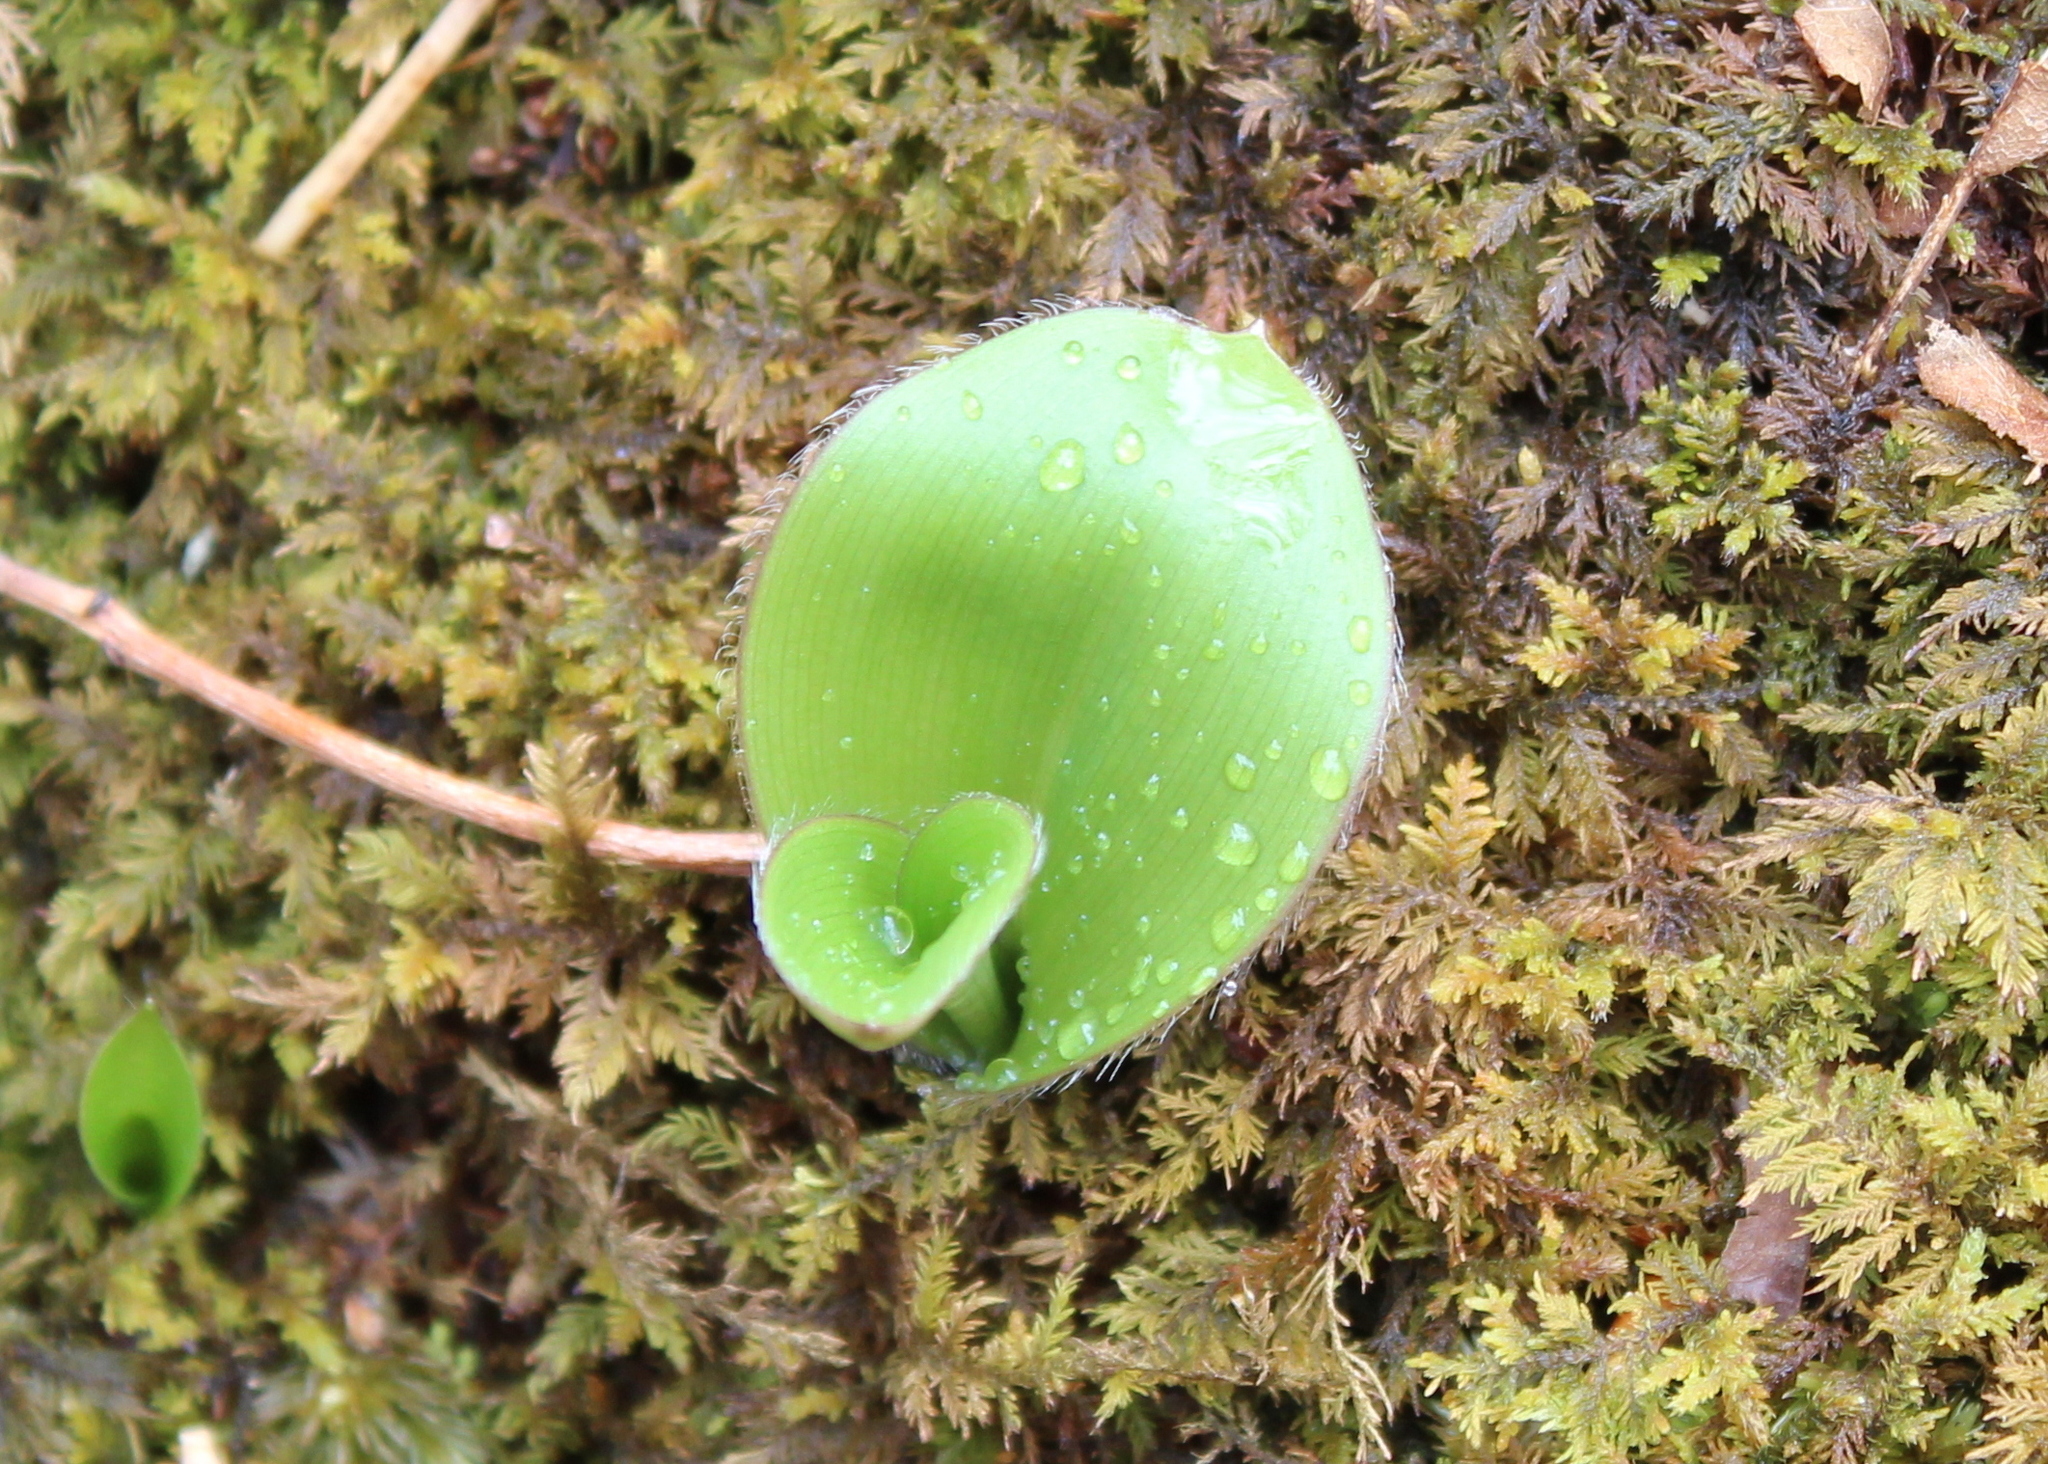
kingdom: Plantae
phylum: Tracheophyta
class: Liliopsida
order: Liliales
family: Liliaceae
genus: Clintonia
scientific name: Clintonia borealis
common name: Yellow clintonia
